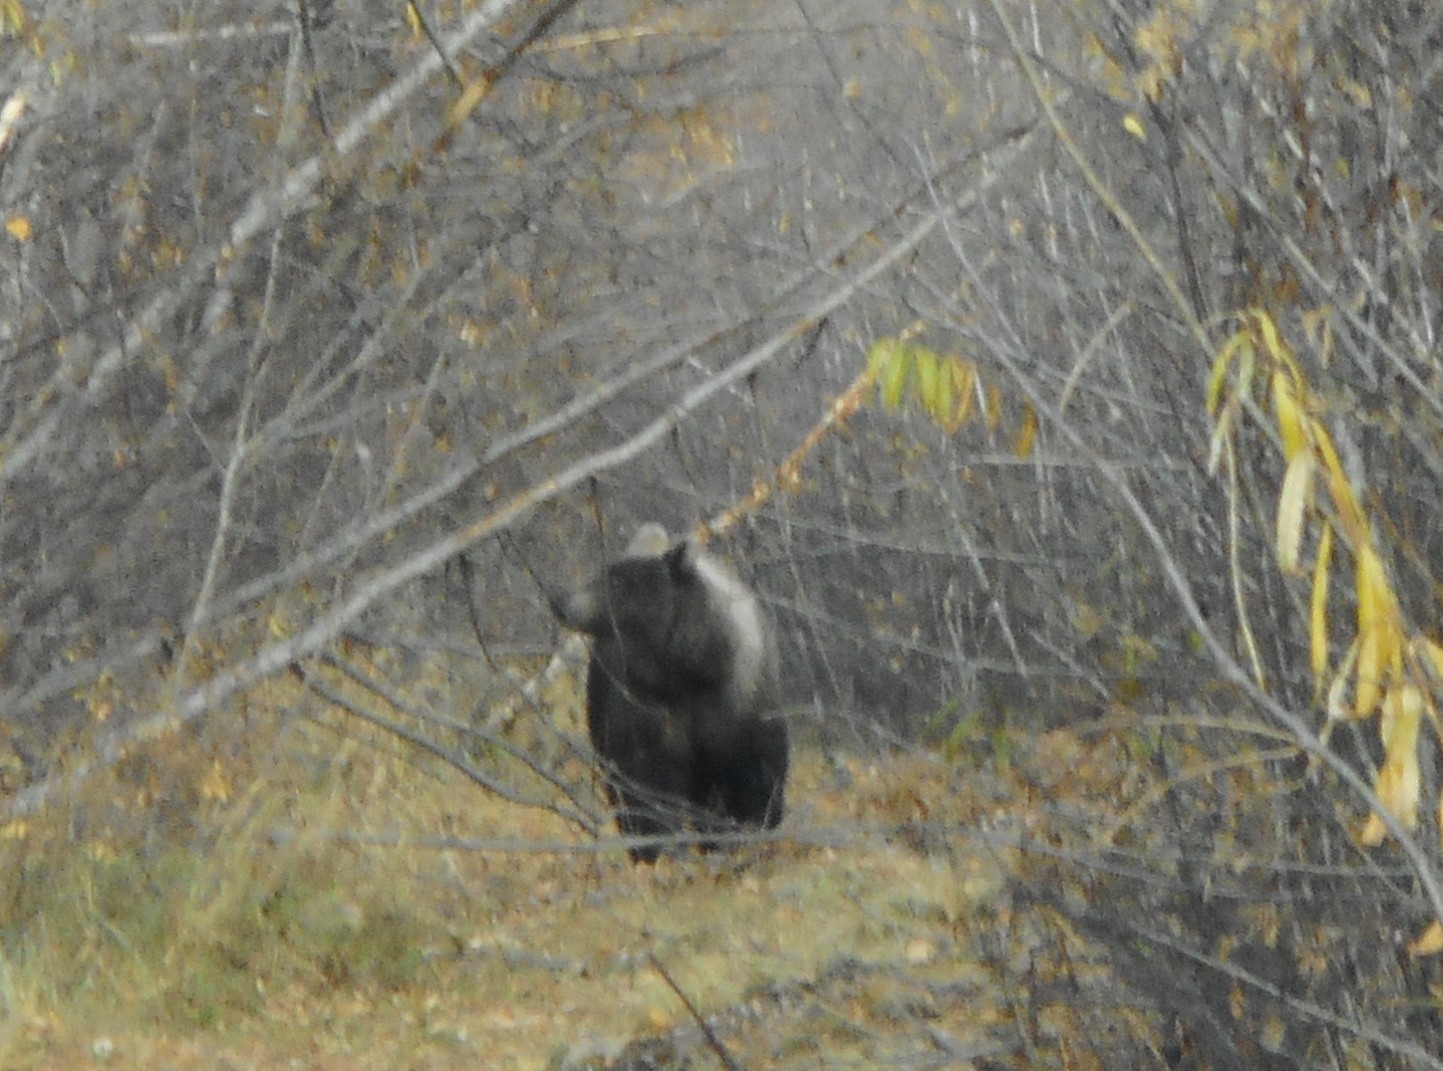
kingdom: Animalia
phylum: Chordata
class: Mammalia
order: Carnivora
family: Ursidae
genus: Ursus
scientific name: Ursus arctos
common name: Brown bear
